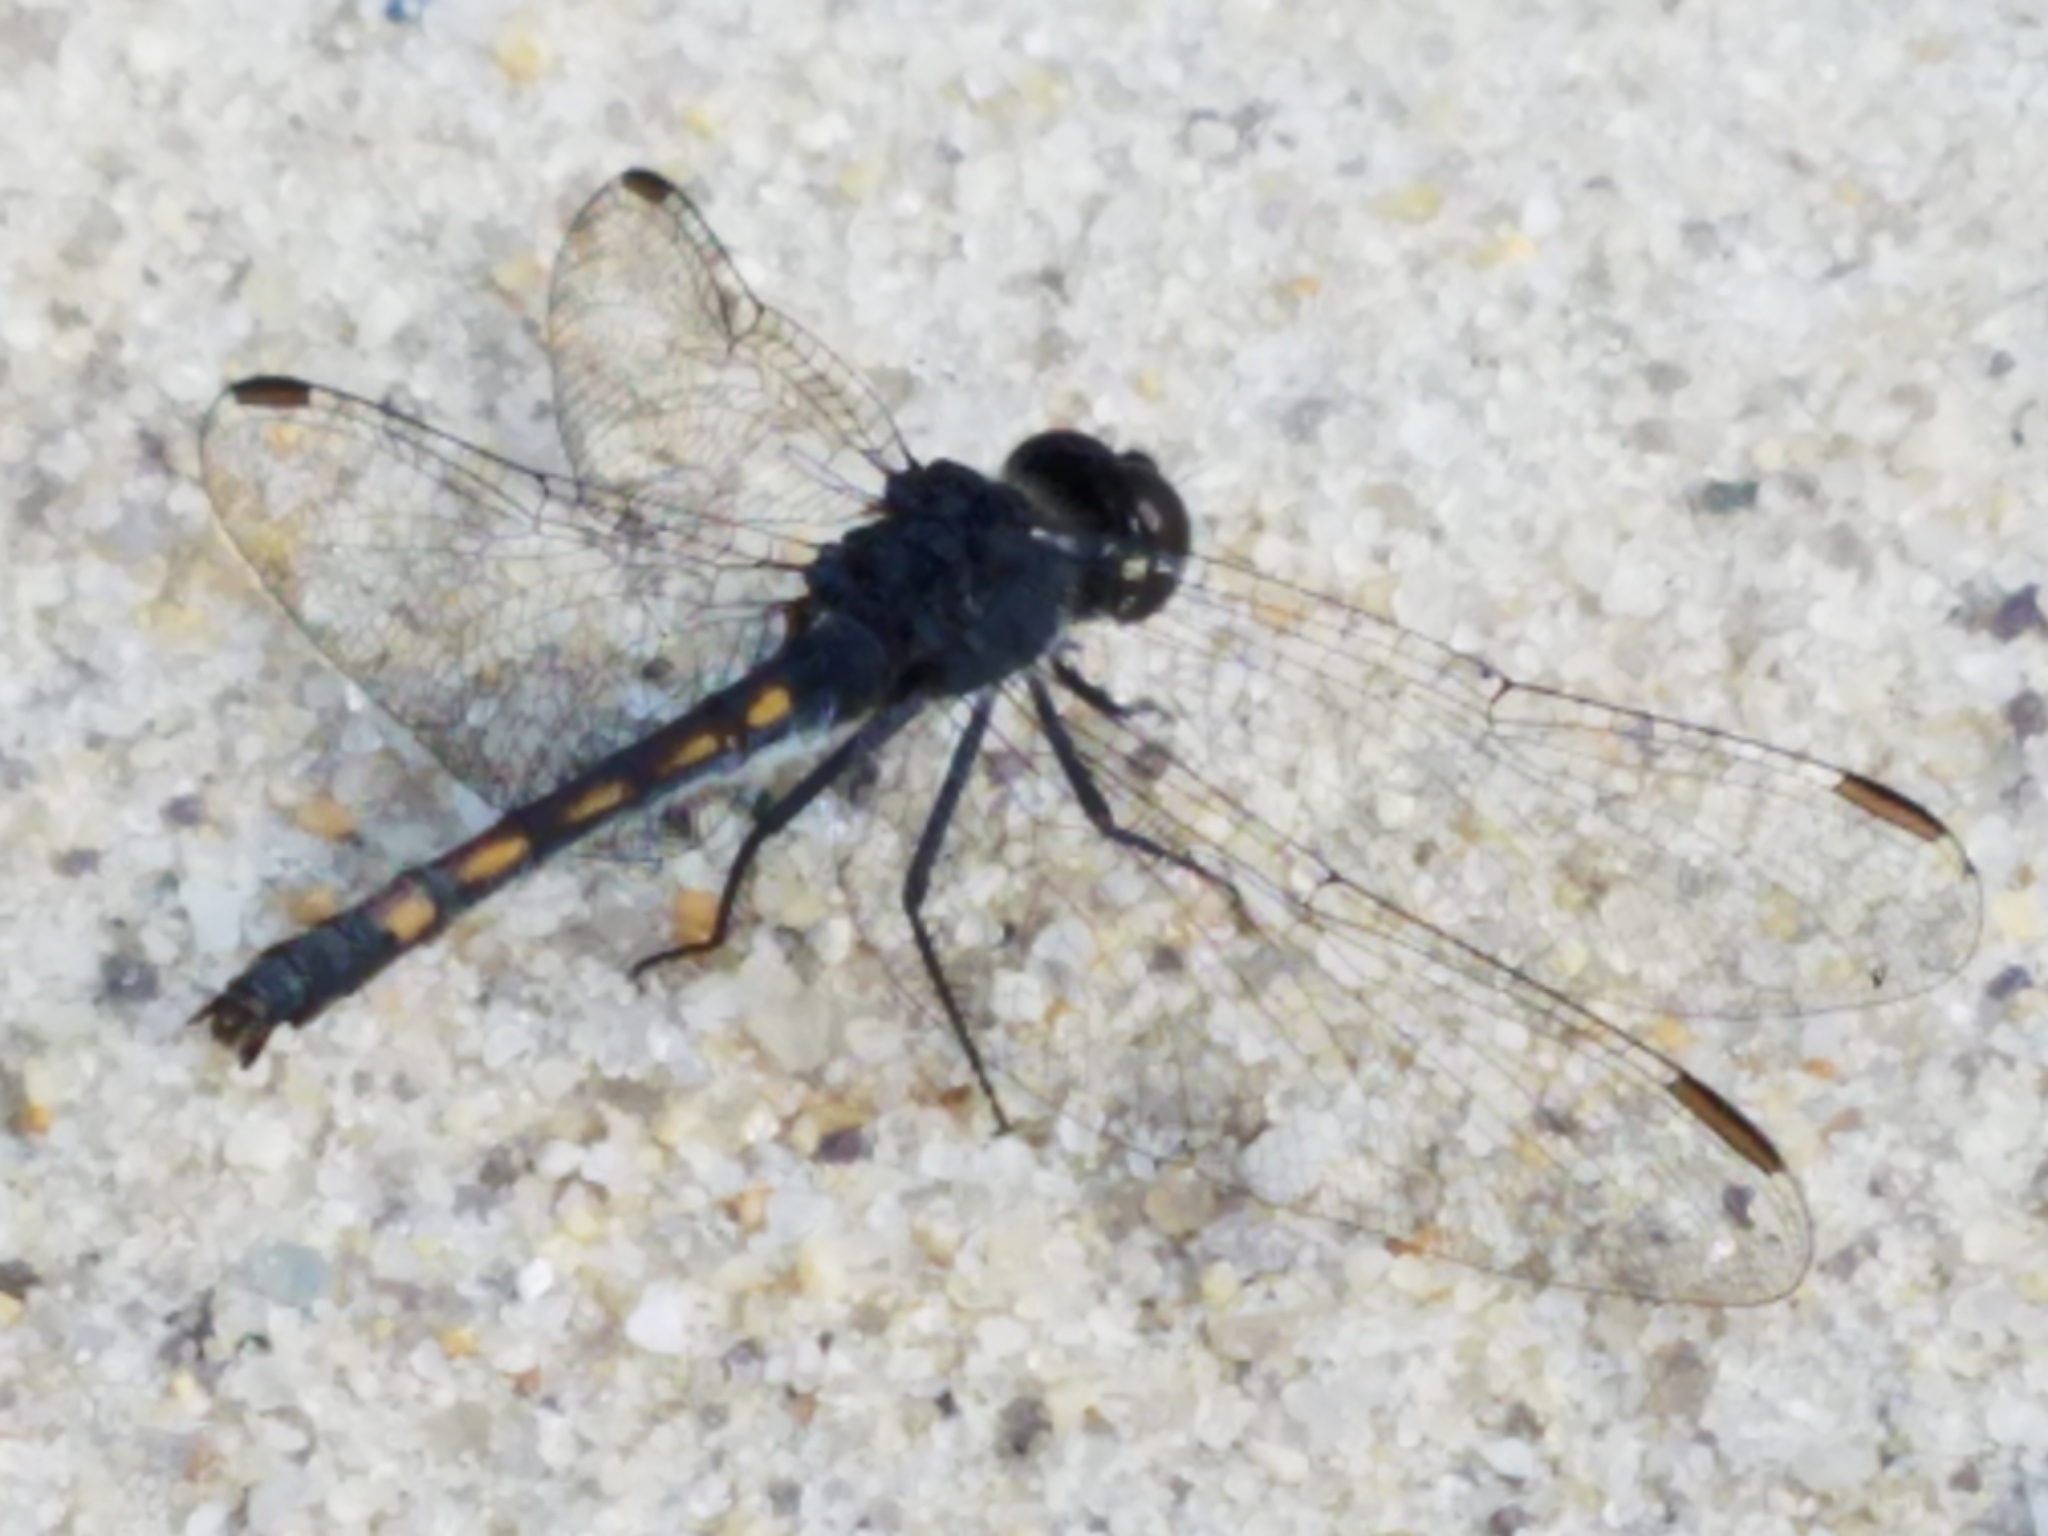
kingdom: Animalia
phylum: Arthropoda
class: Insecta
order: Odonata
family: Libellulidae
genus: Erythrodiplax
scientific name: Erythrodiplax berenice
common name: Seaside dragonlet
